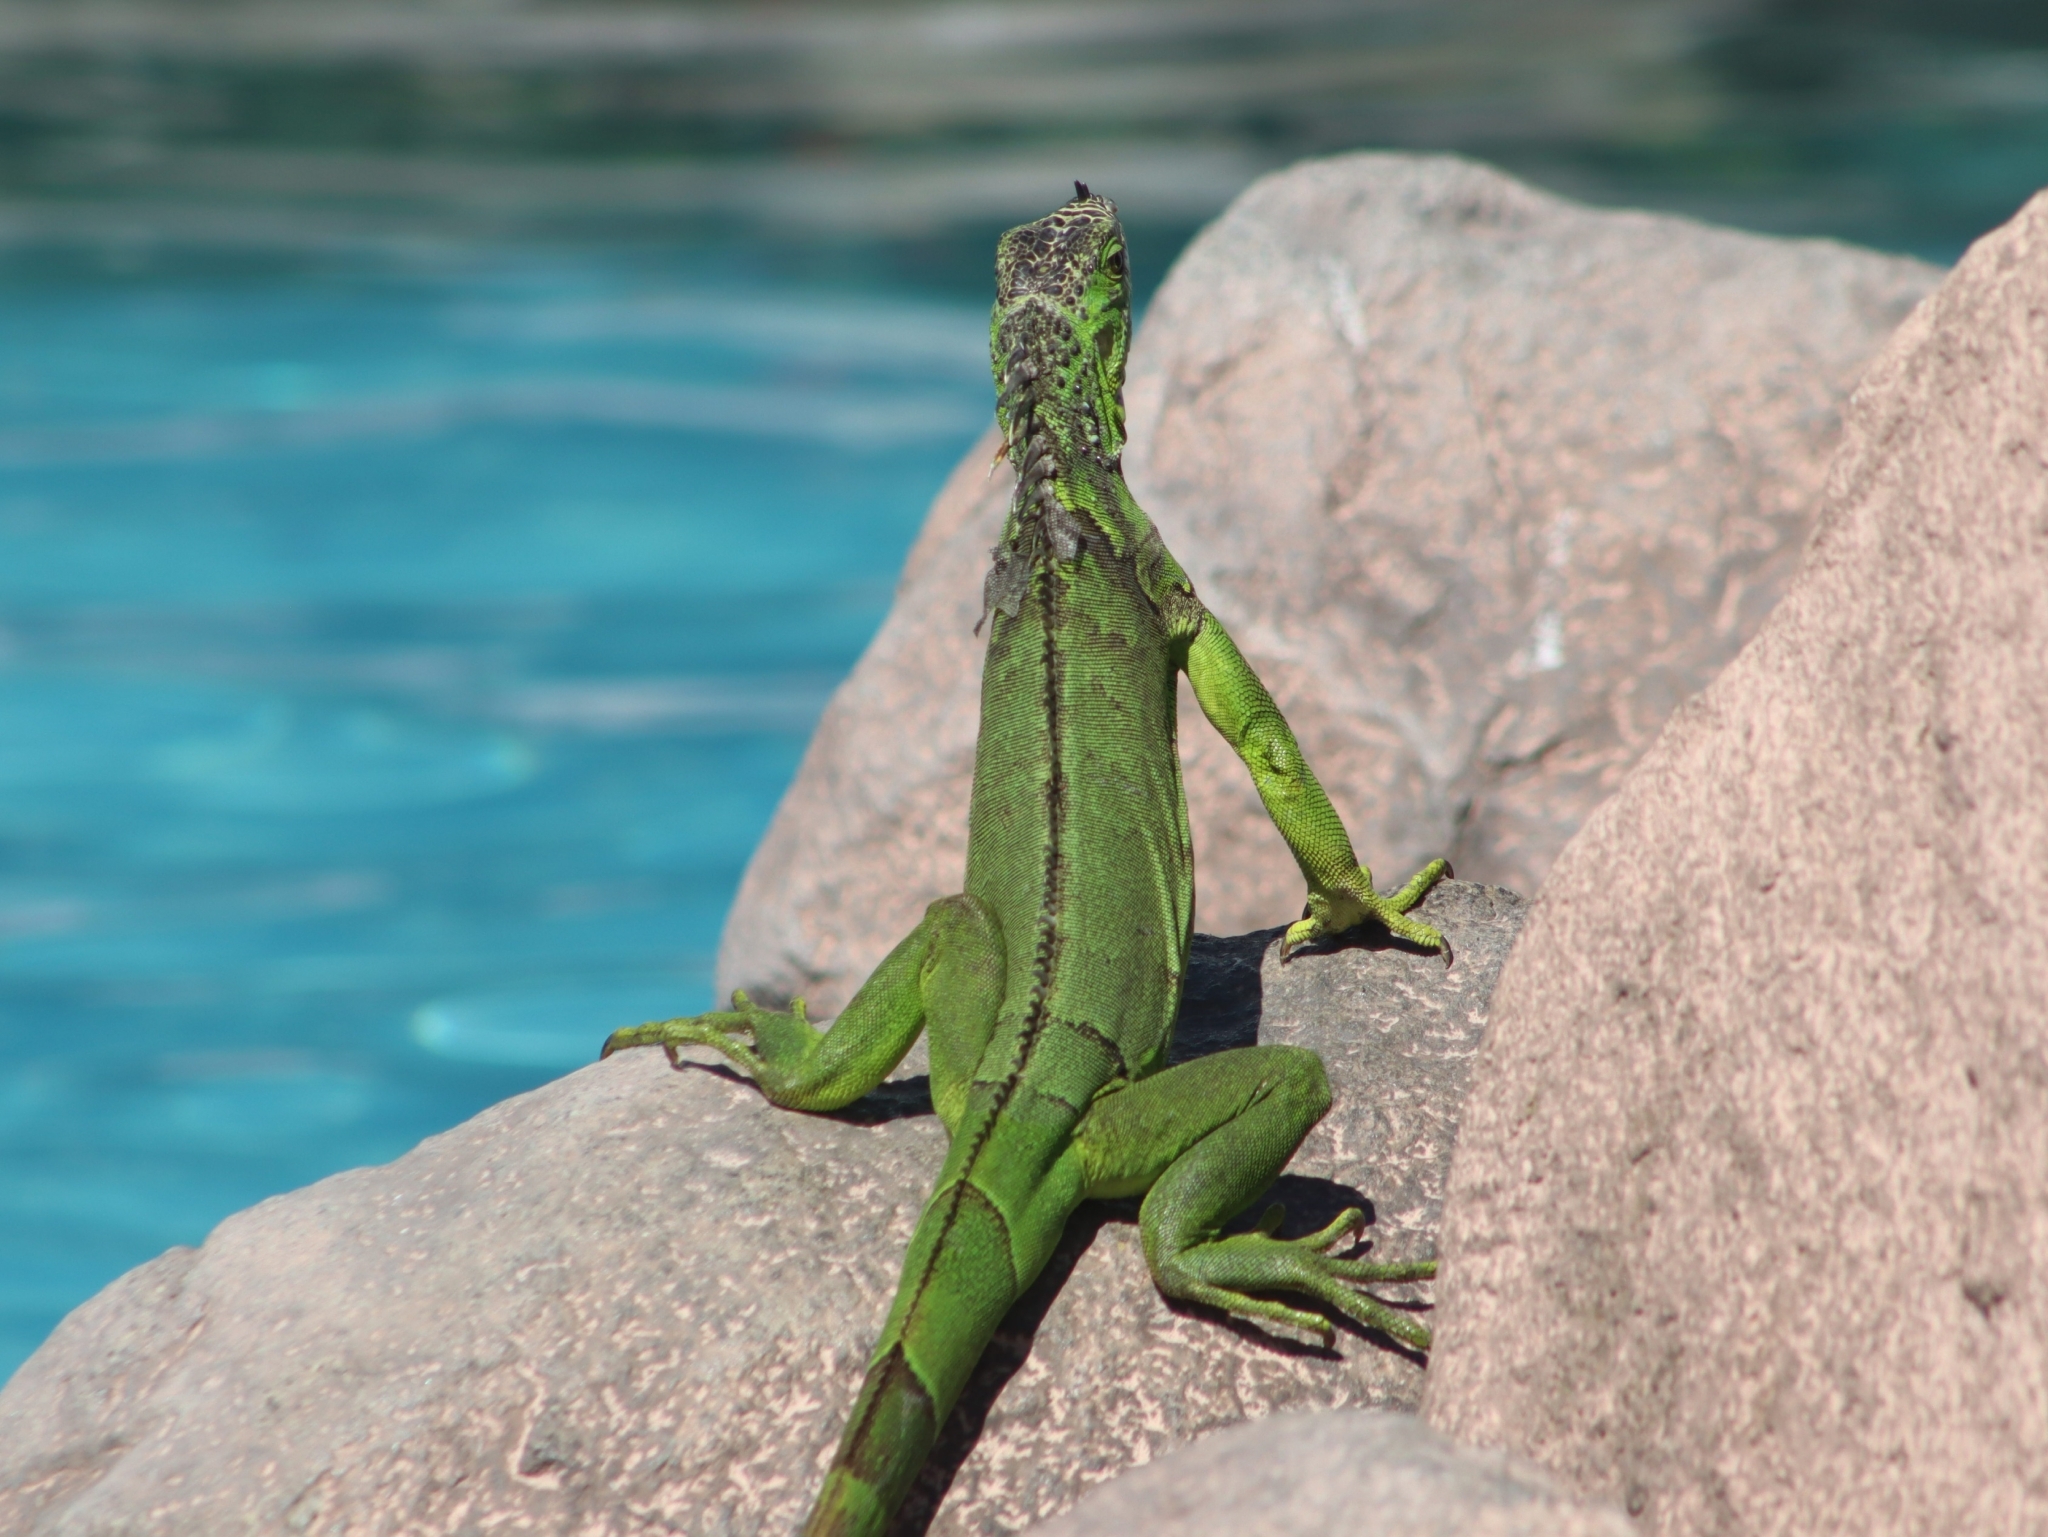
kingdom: Animalia
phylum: Chordata
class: Squamata
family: Iguanidae
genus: Iguana
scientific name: Iguana iguana
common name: Green iguana
